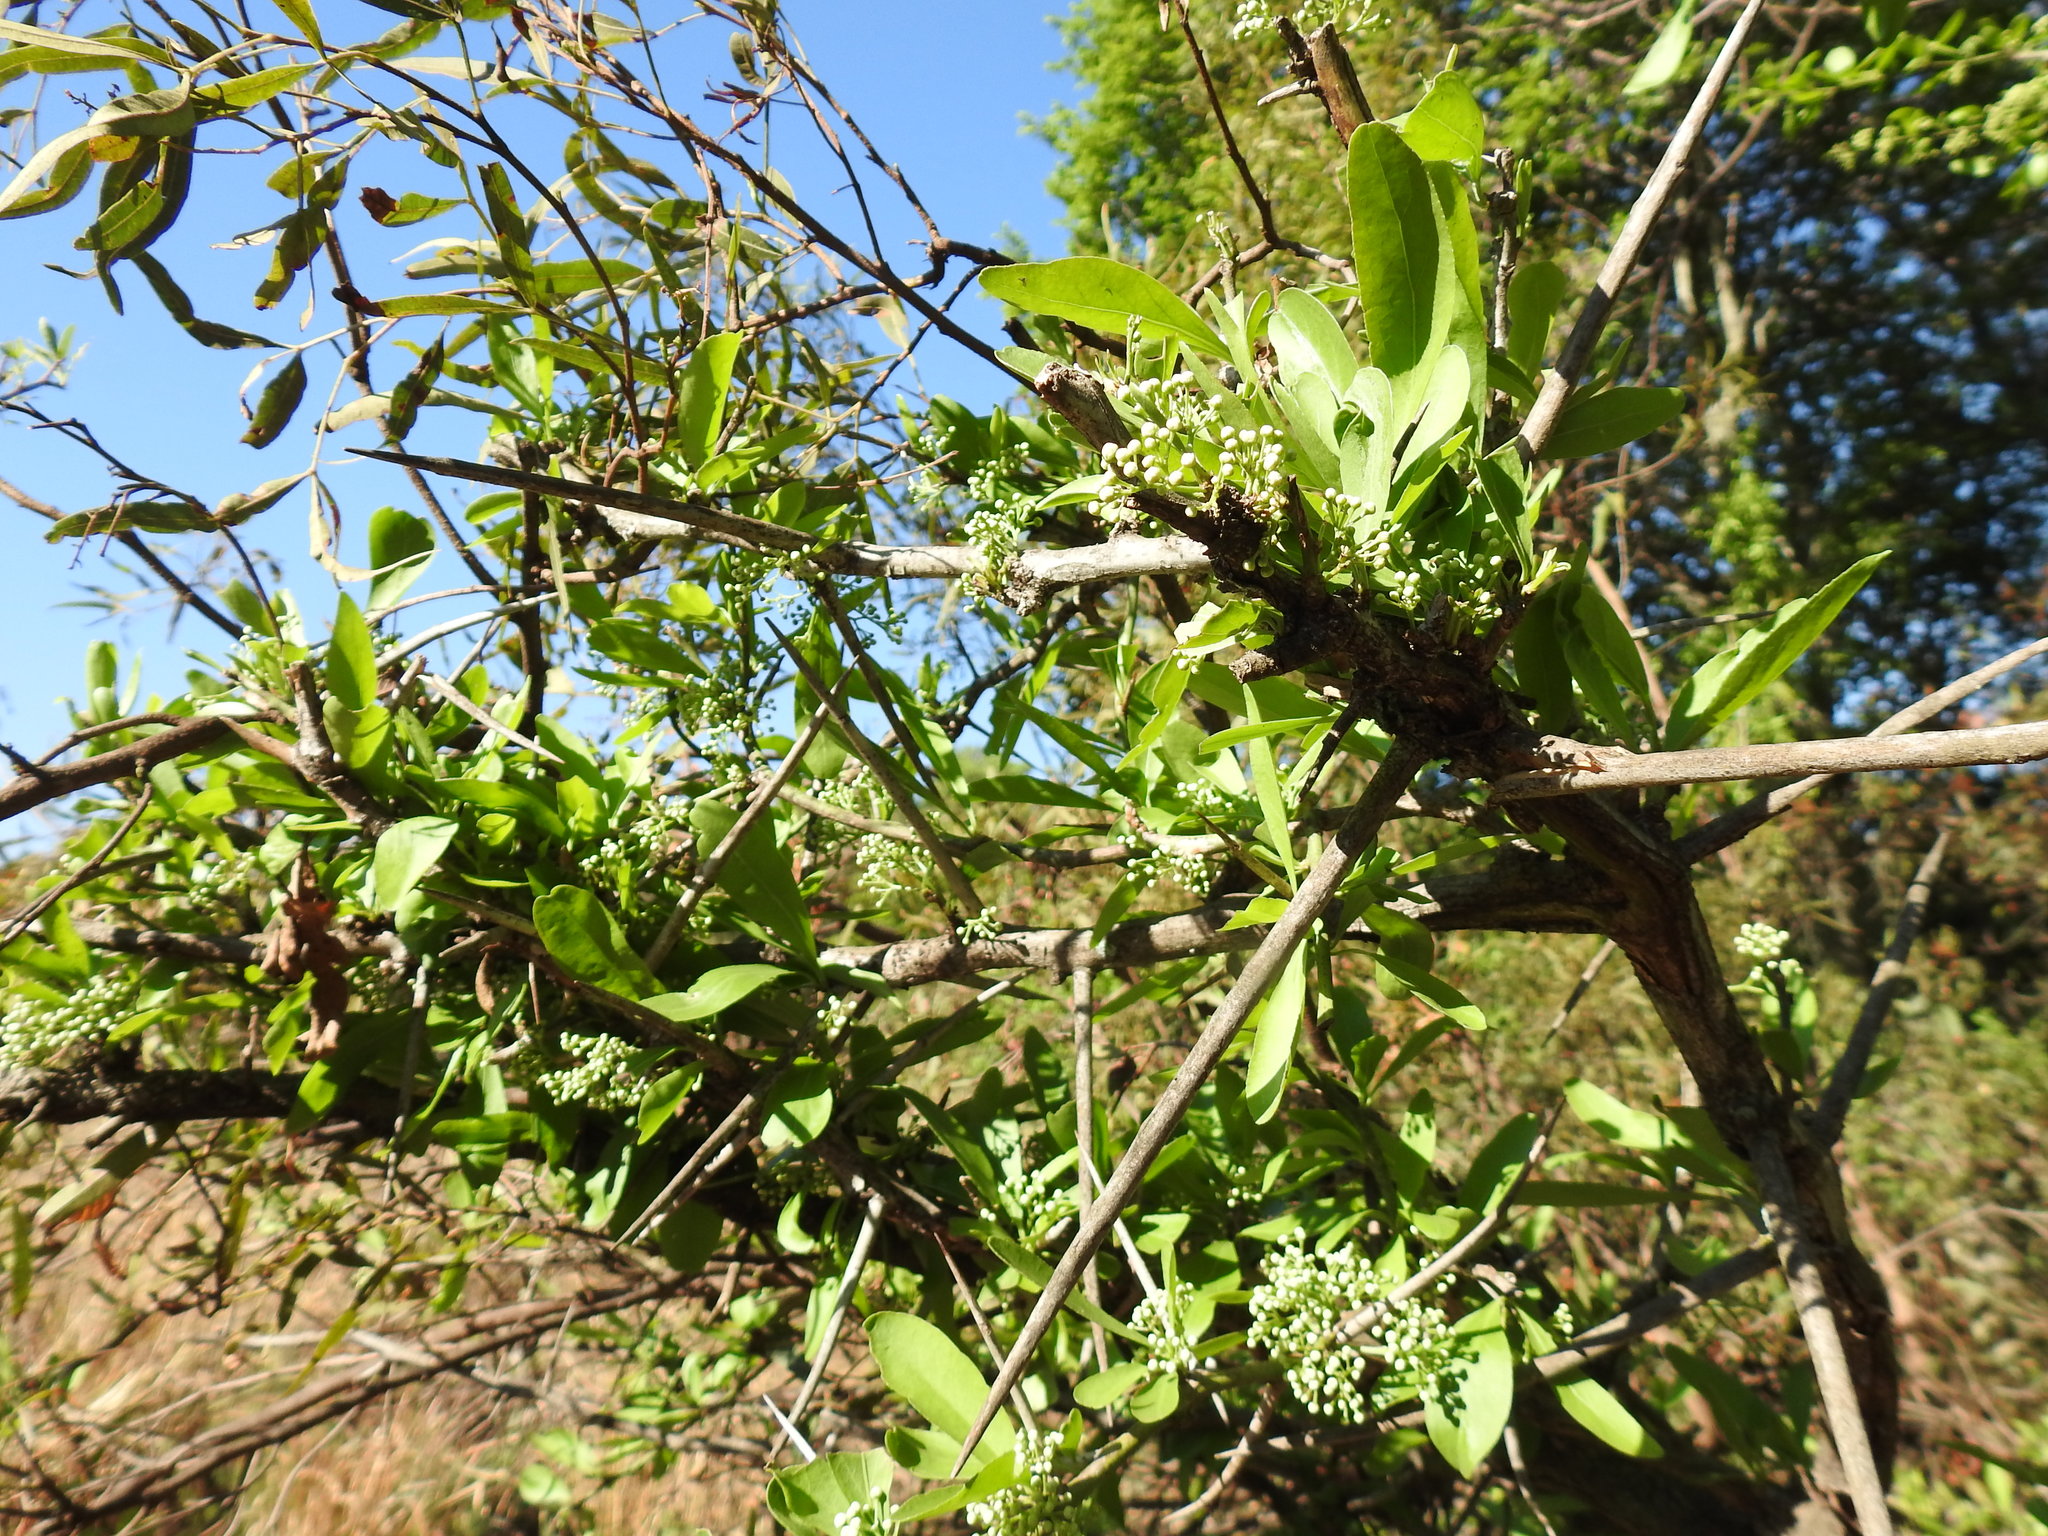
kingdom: Plantae
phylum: Tracheophyta
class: Magnoliopsida
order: Celastrales
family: Celastraceae
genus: Gymnosporia
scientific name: Gymnosporia buxifolia
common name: Common spike-thorn
